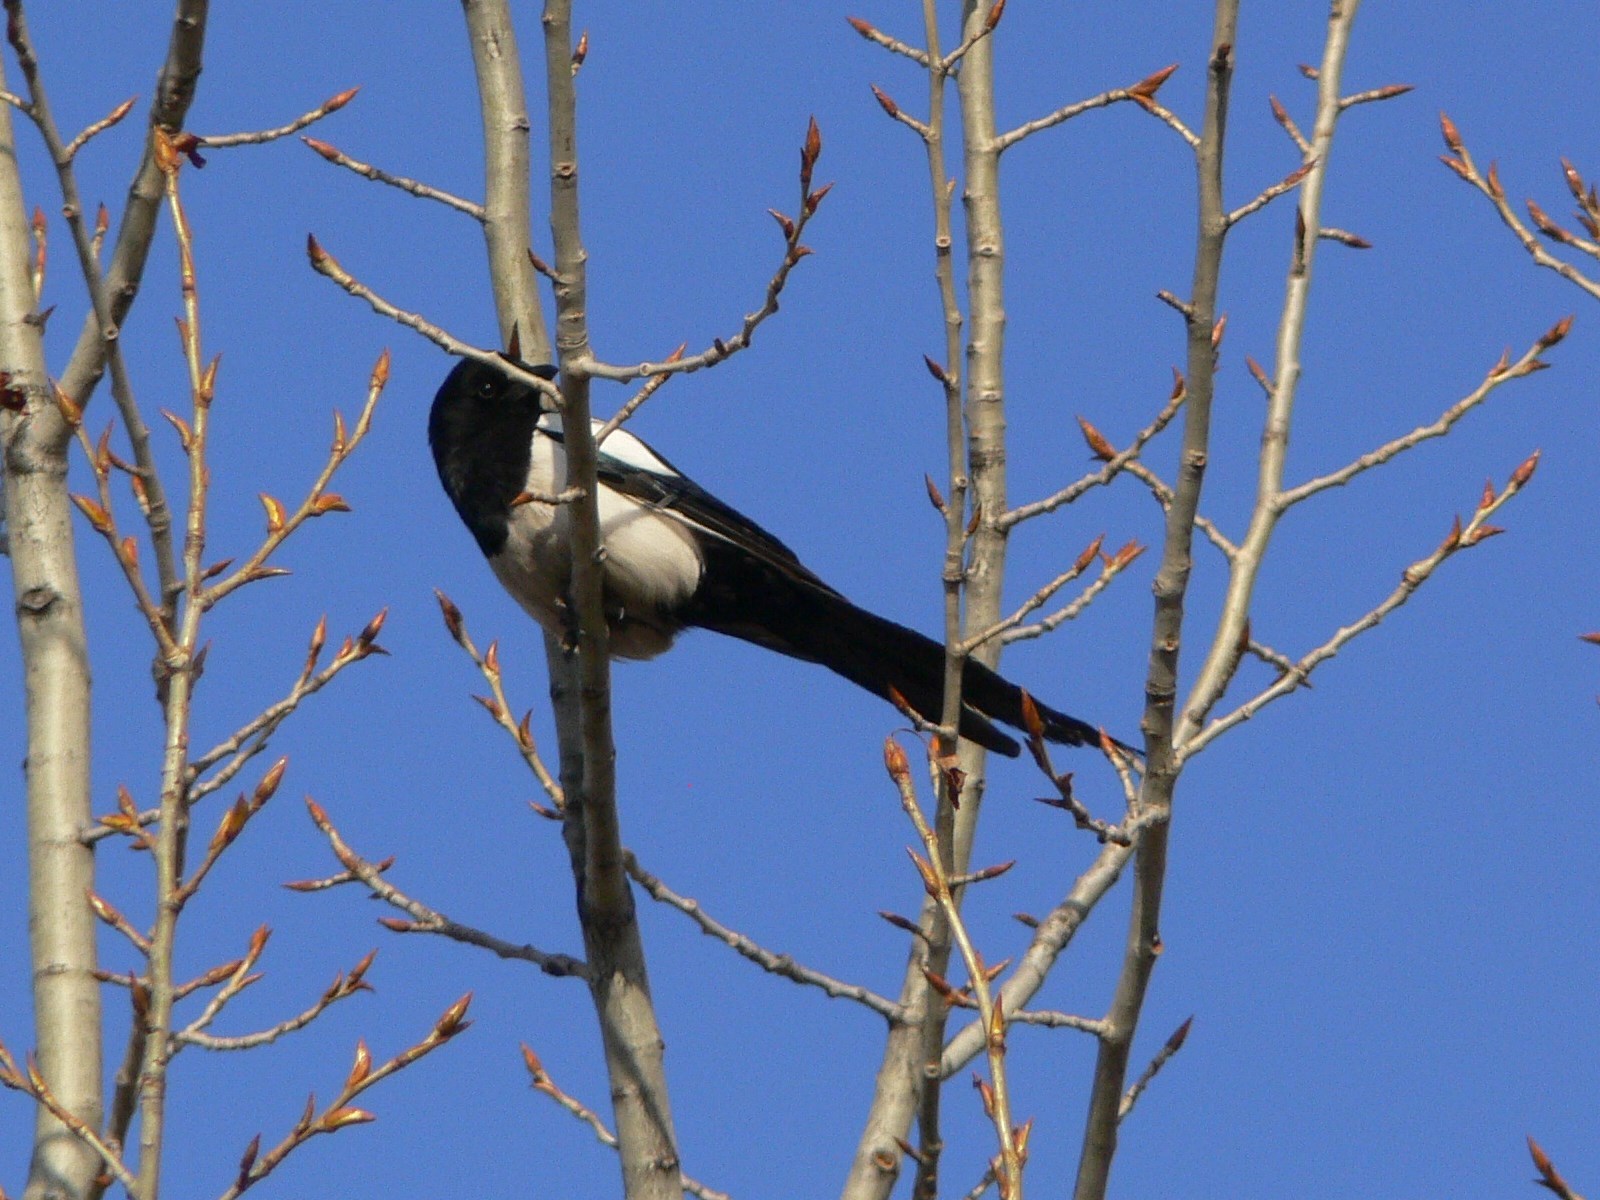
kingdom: Animalia
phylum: Chordata
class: Aves
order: Passeriformes
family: Corvidae
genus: Pica
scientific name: Pica pica
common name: Eurasian magpie
